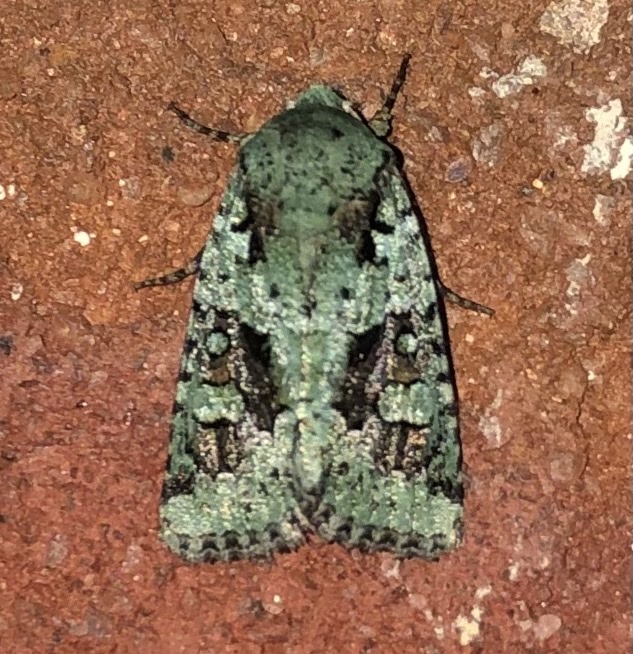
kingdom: Animalia
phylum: Arthropoda
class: Insecta
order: Lepidoptera
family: Noctuidae
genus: Lacinipolia
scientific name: Lacinipolia laudabilis
